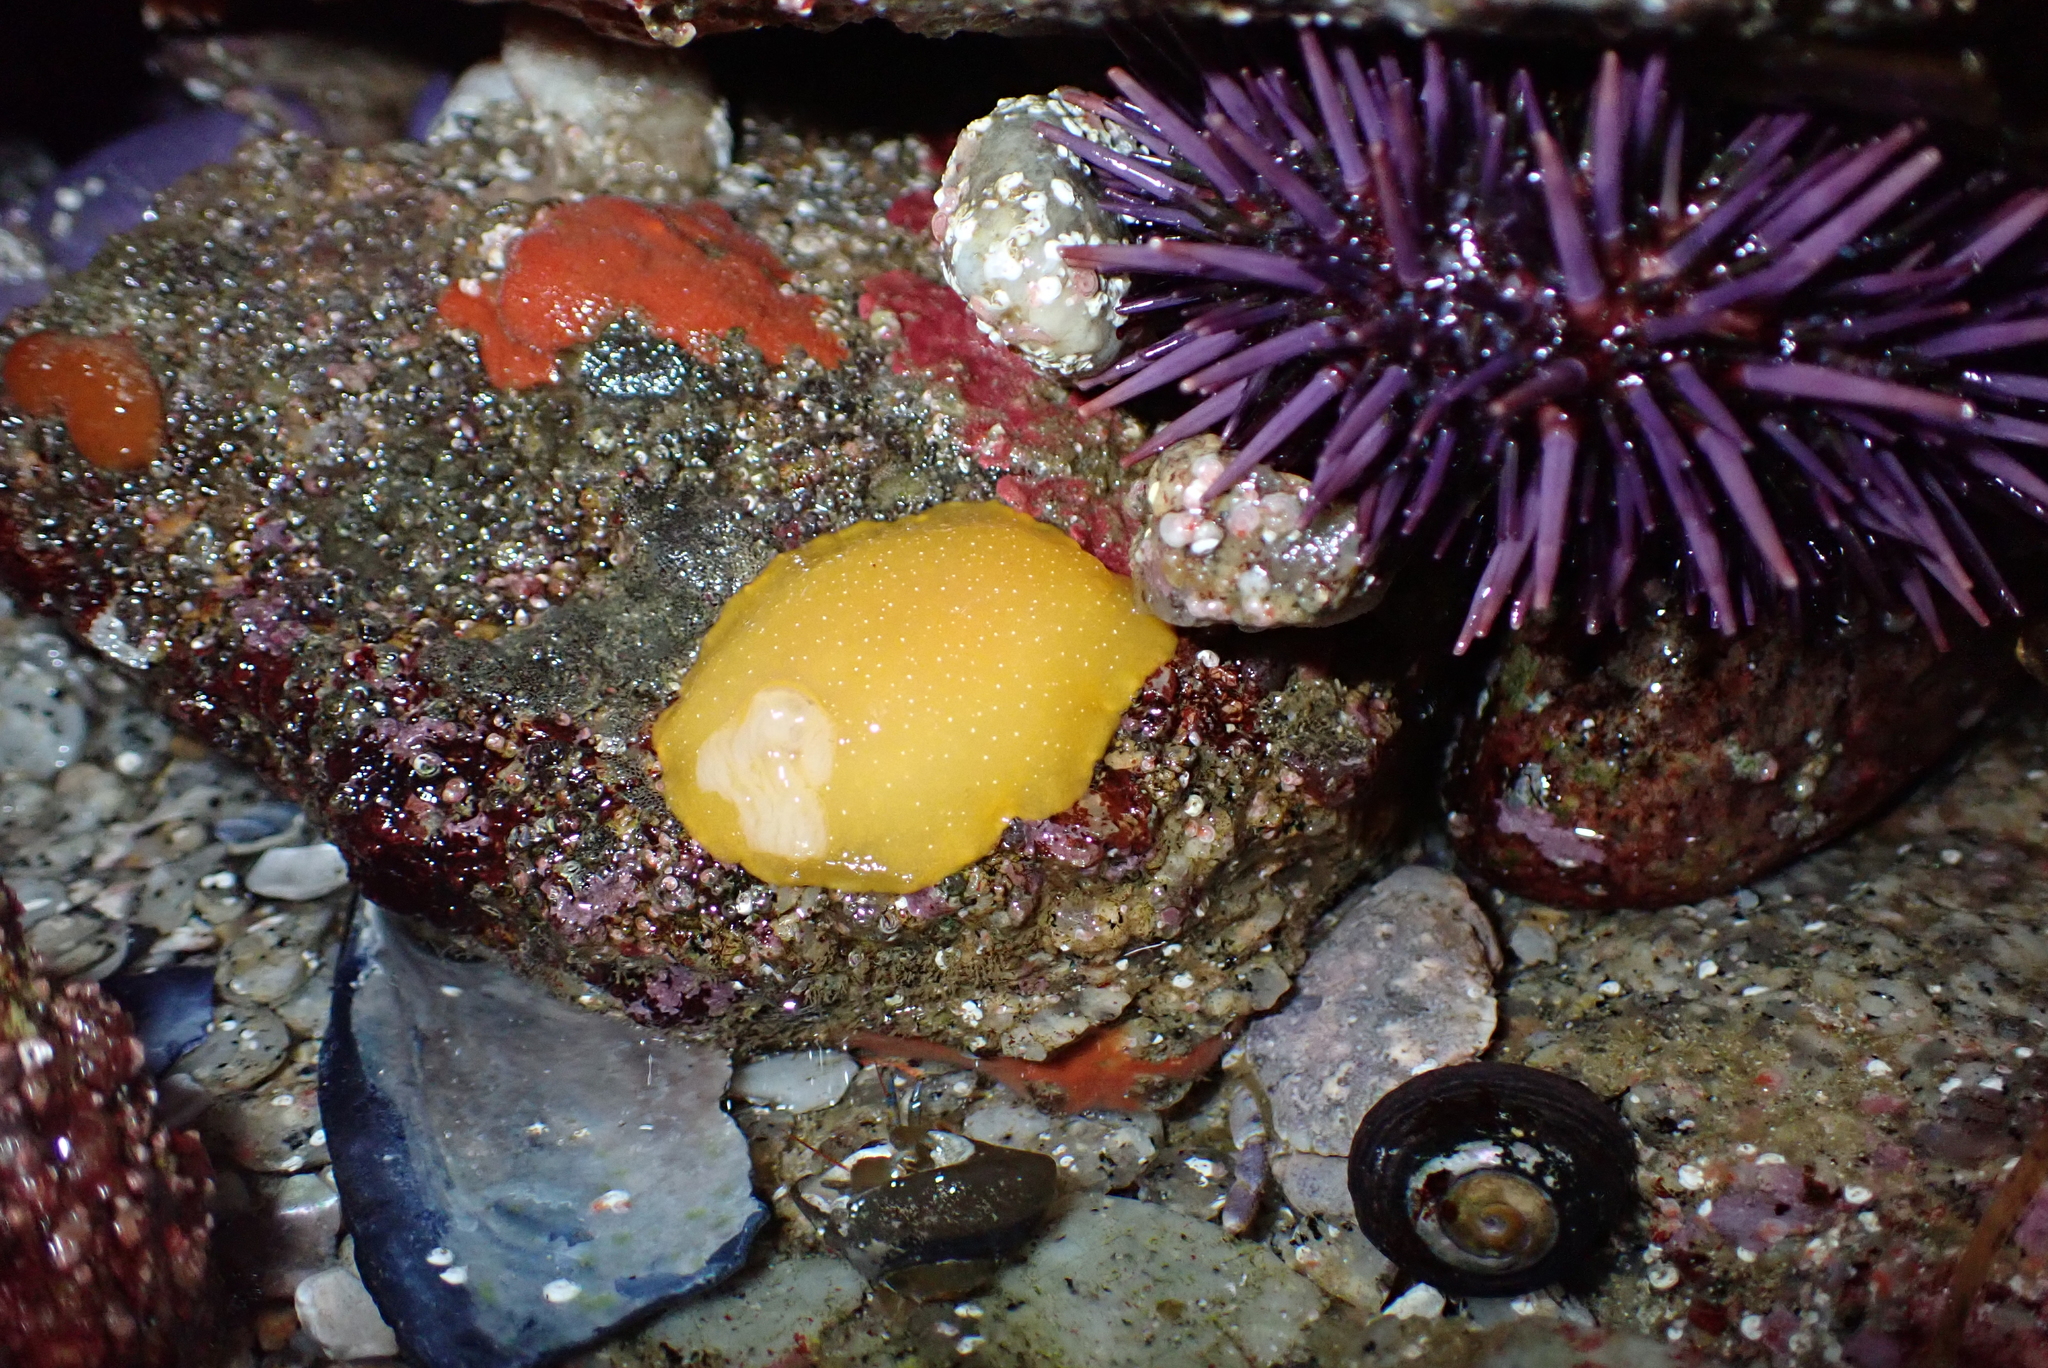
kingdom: Animalia
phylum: Mollusca
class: Gastropoda
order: Nudibranchia
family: Dendrodorididae
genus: Doriopsilla
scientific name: Doriopsilla fulva
